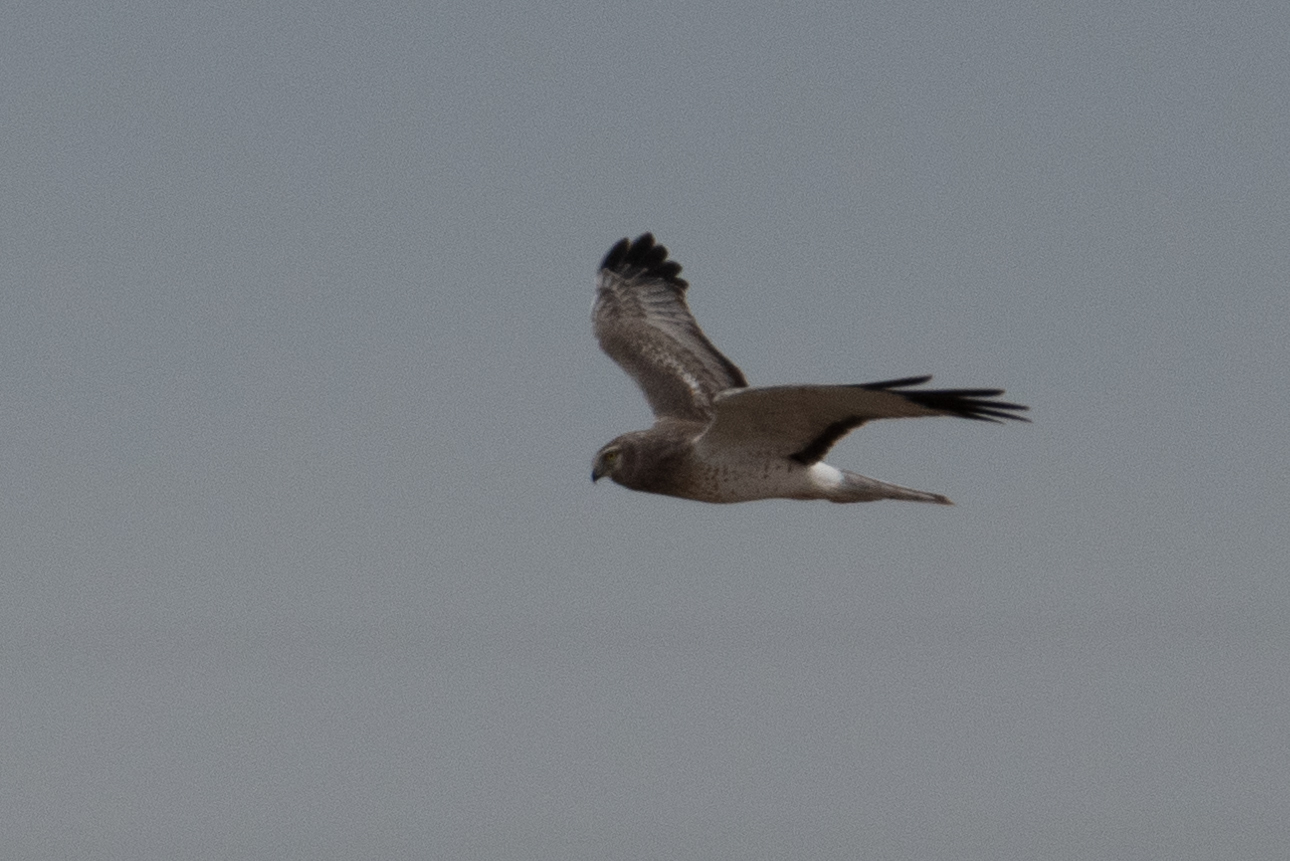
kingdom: Animalia
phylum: Chordata
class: Aves
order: Accipitriformes
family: Accipitridae
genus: Circus
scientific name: Circus cyaneus
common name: Hen harrier
